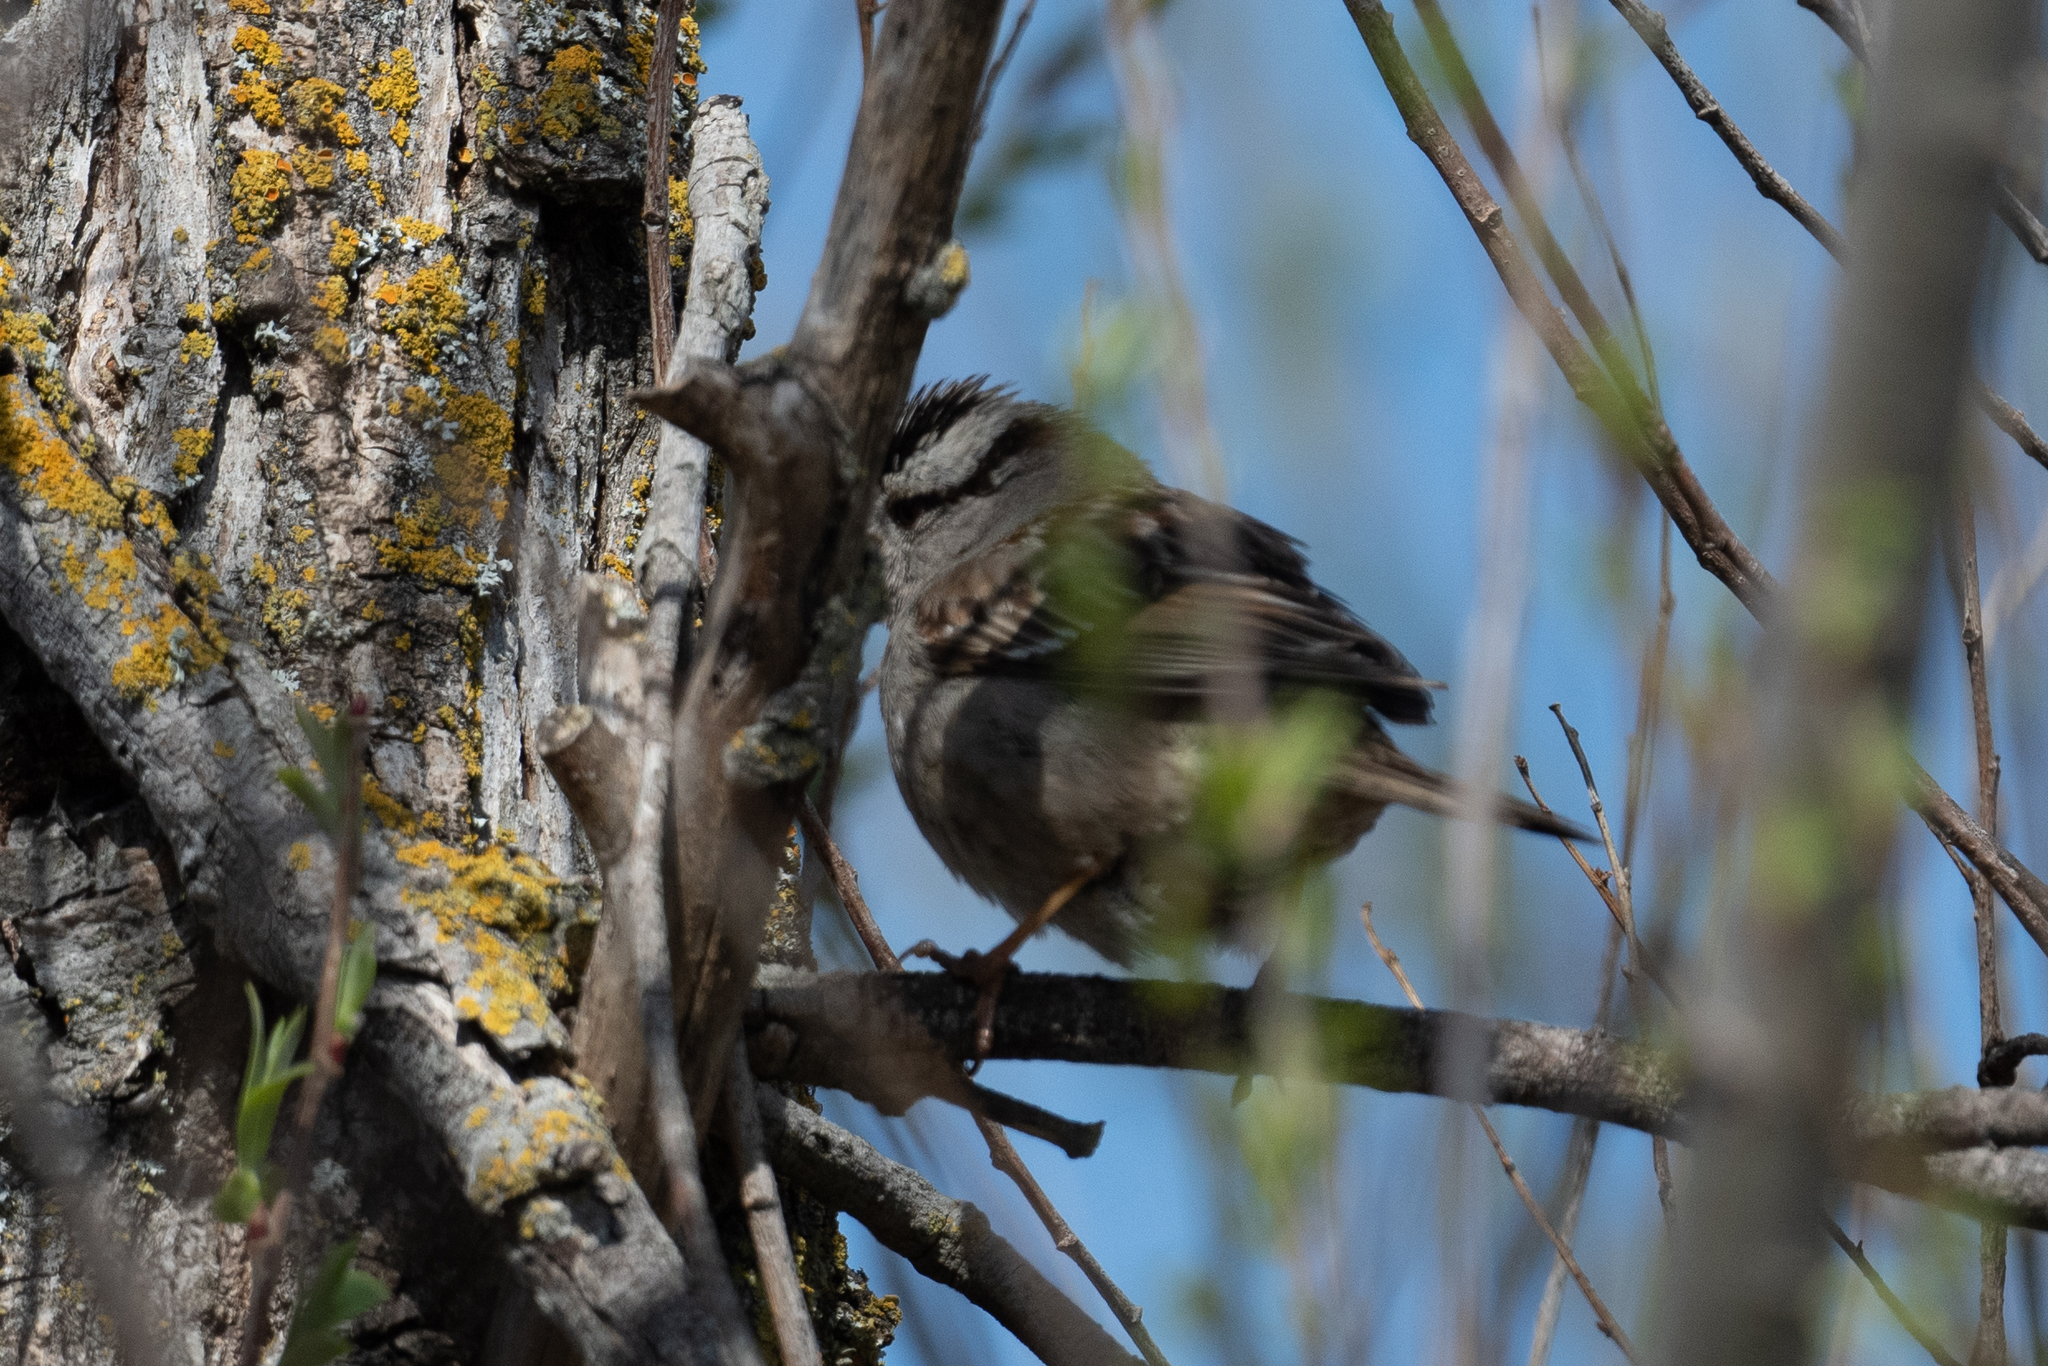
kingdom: Animalia
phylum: Chordata
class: Aves
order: Passeriformes
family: Passerellidae
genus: Zonotrichia
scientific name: Zonotrichia leucophrys
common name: White-crowned sparrow
